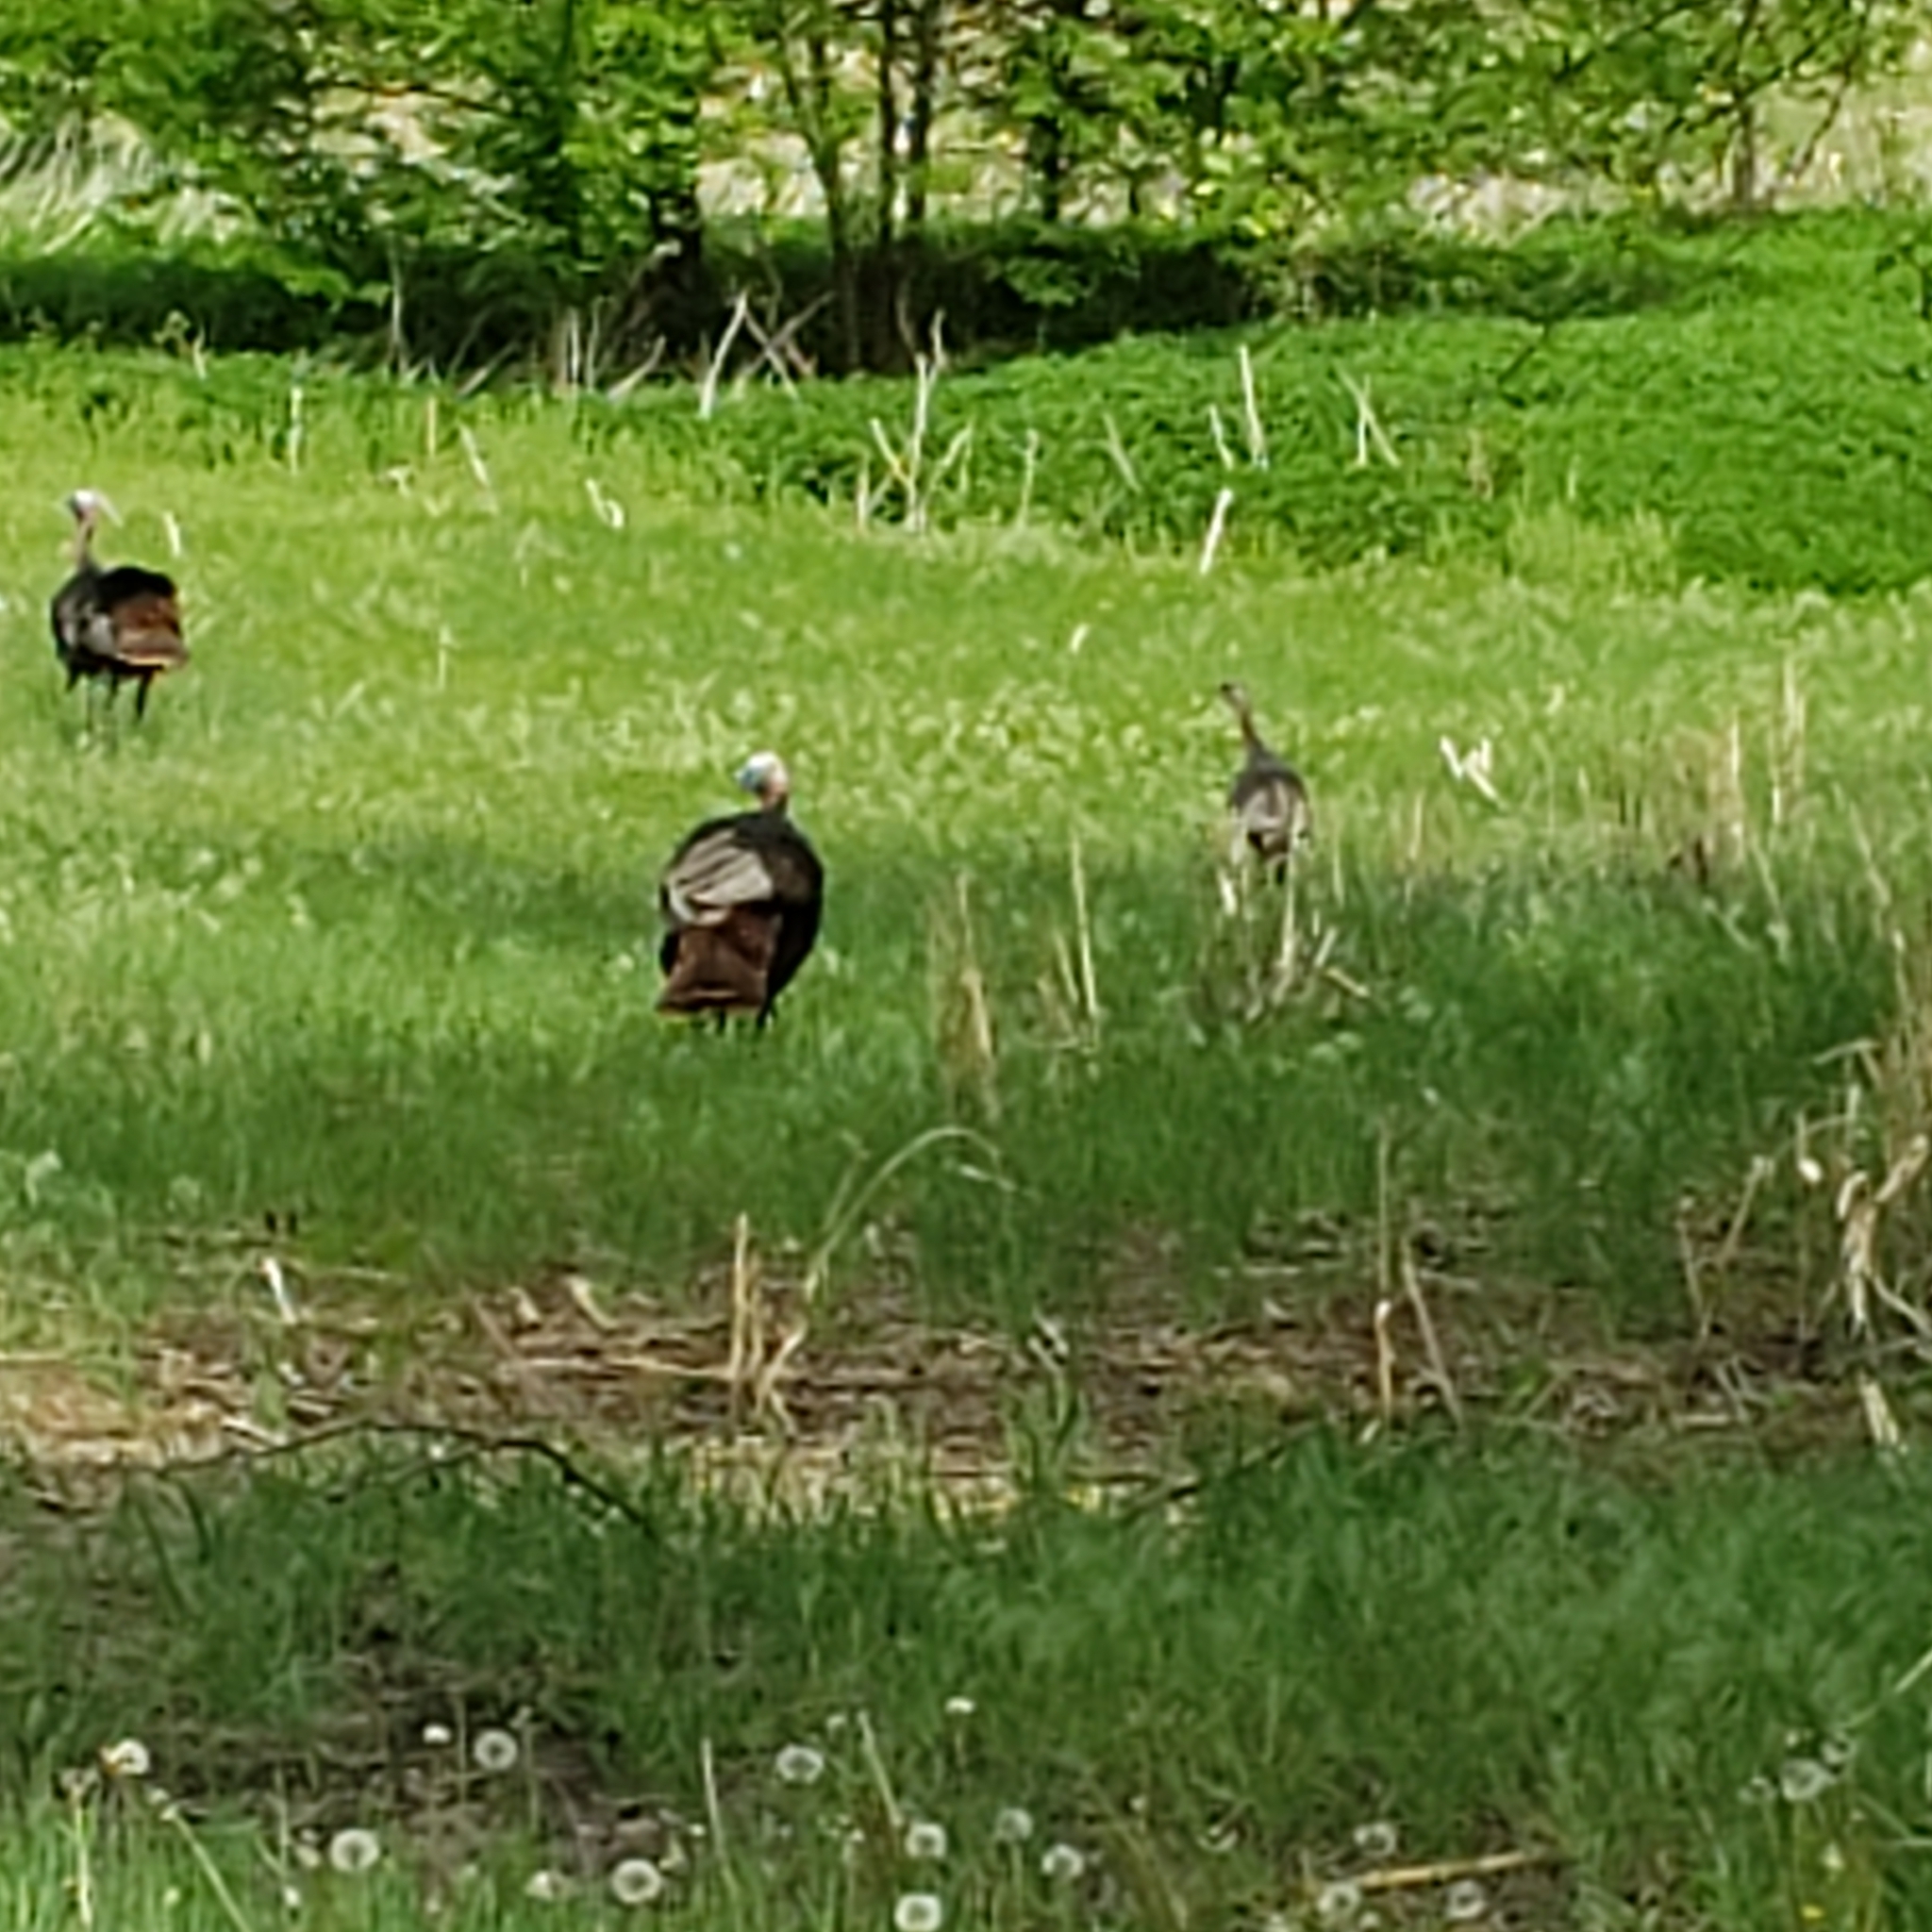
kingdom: Animalia
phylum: Chordata
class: Aves
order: Galliformes
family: Phasianidae
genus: Meleagris
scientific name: Meleagris gallopavo
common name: Wild turkey
